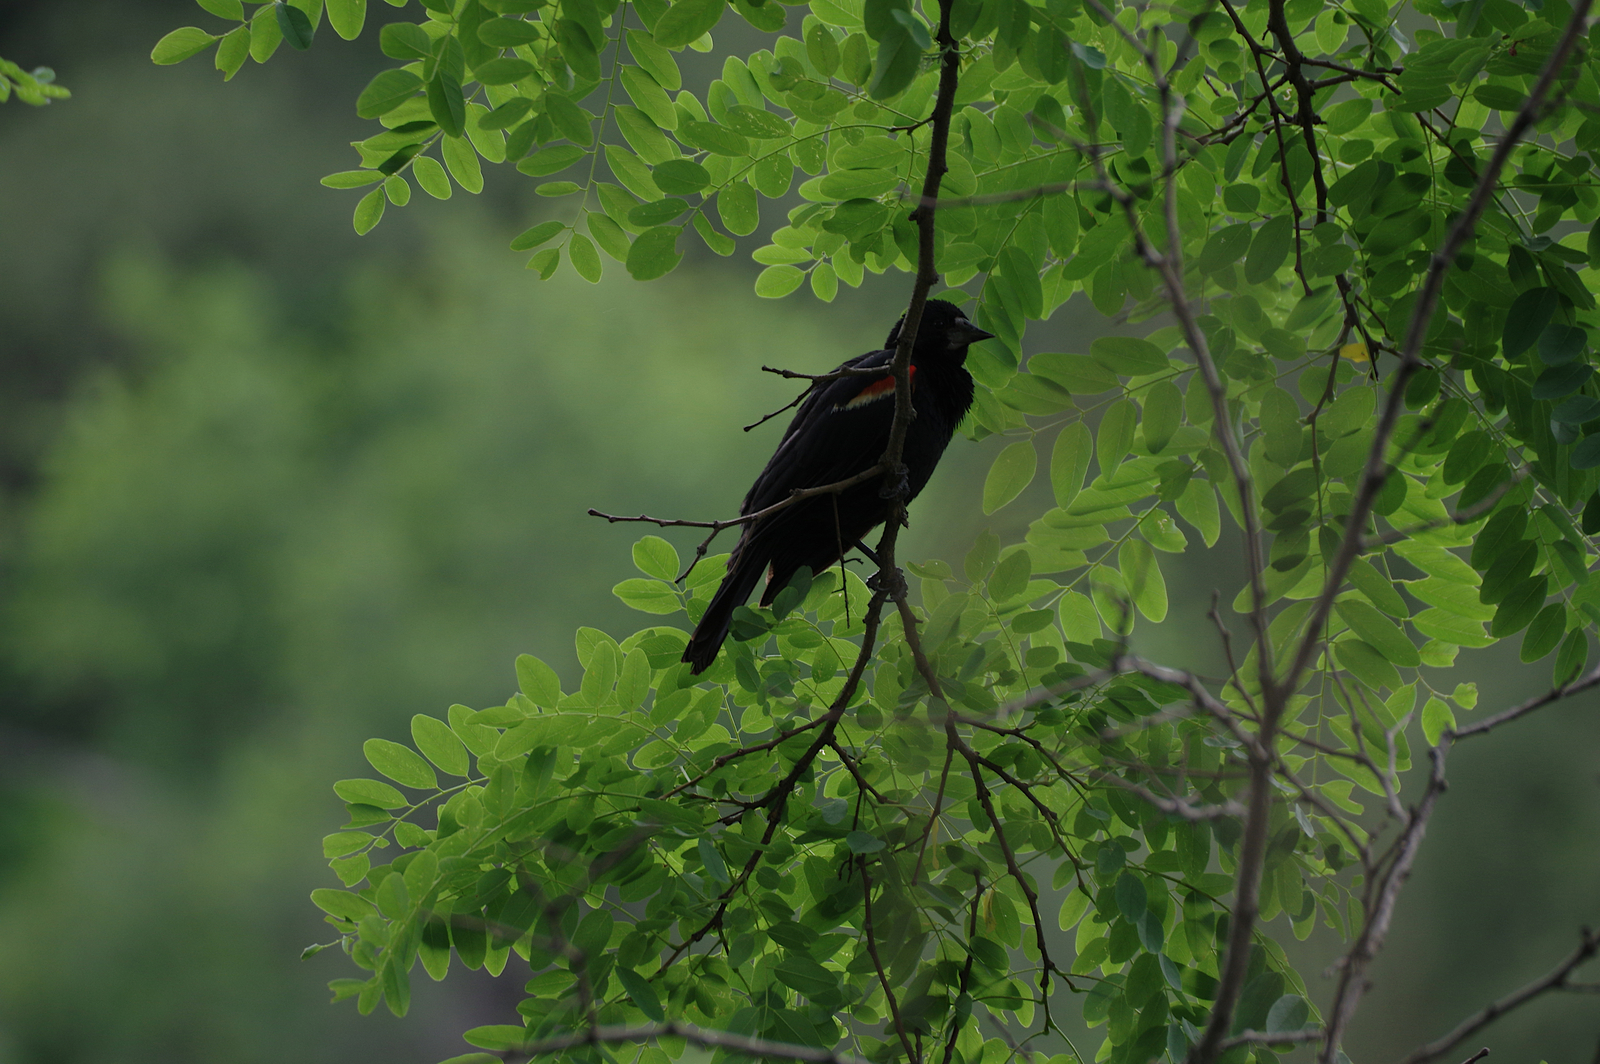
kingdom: Animalia
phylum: Chordata
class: Aves
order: Passeriformes
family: Icteridae
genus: Agelaius
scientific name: Agelaius phoeniceus
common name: Red-winged blackbird
